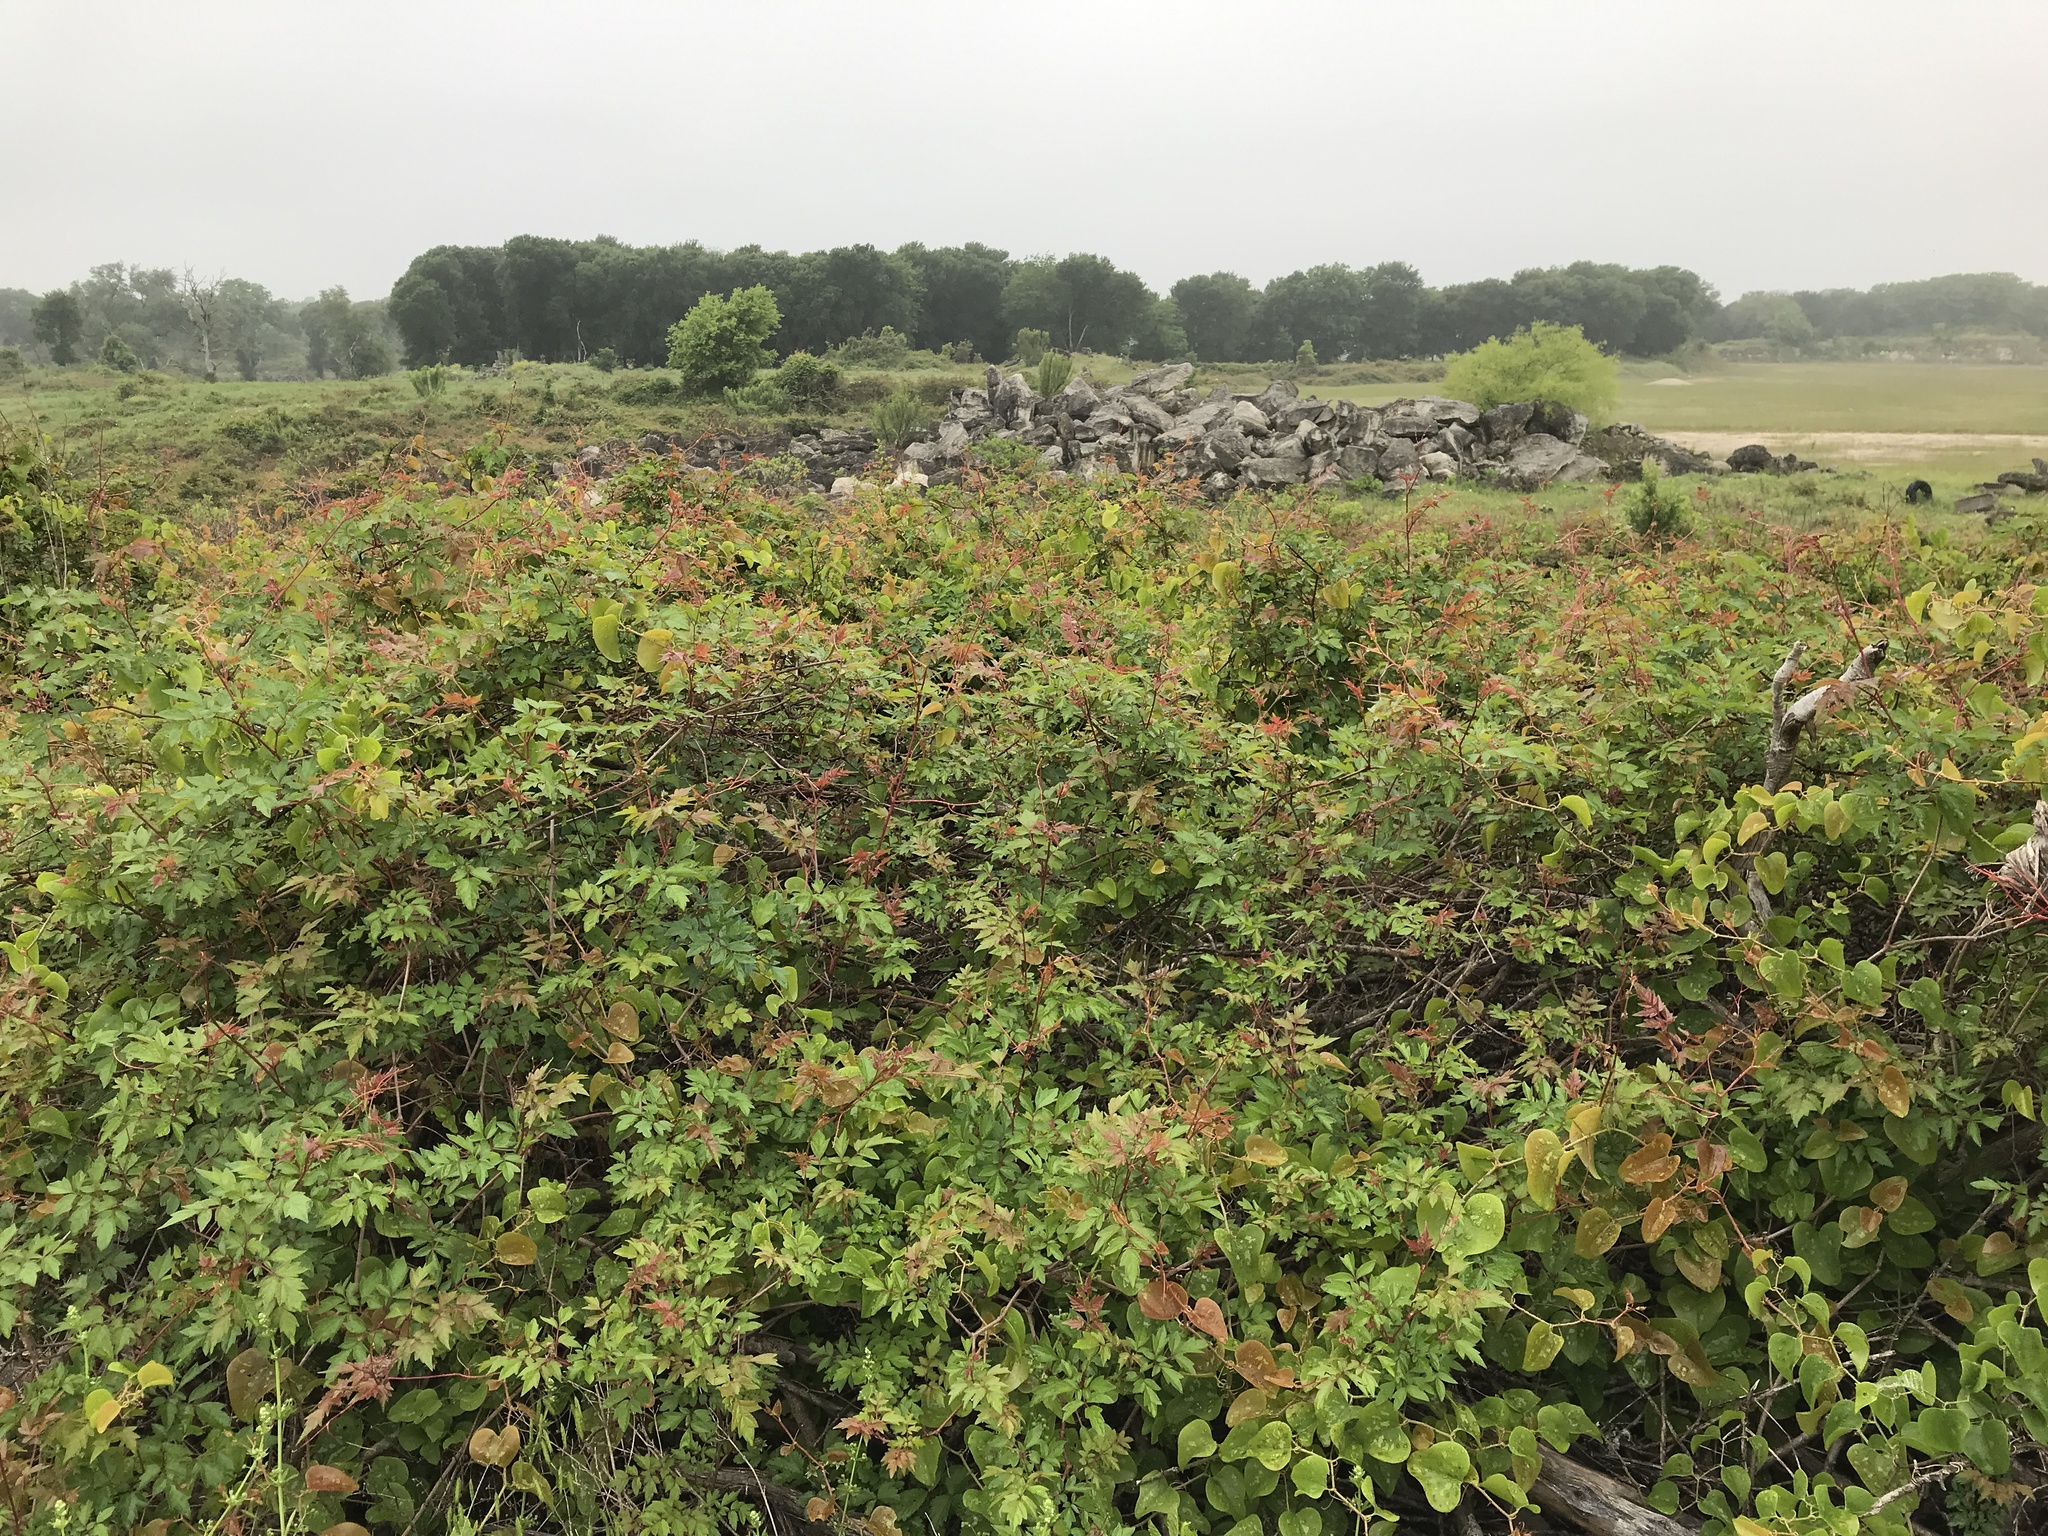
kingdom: Plantae
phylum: Tracheophyta
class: Magnoliopsida
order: Vitales
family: Vitaceae
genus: Nekemias
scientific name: Nekemias arborea
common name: Peppervine
